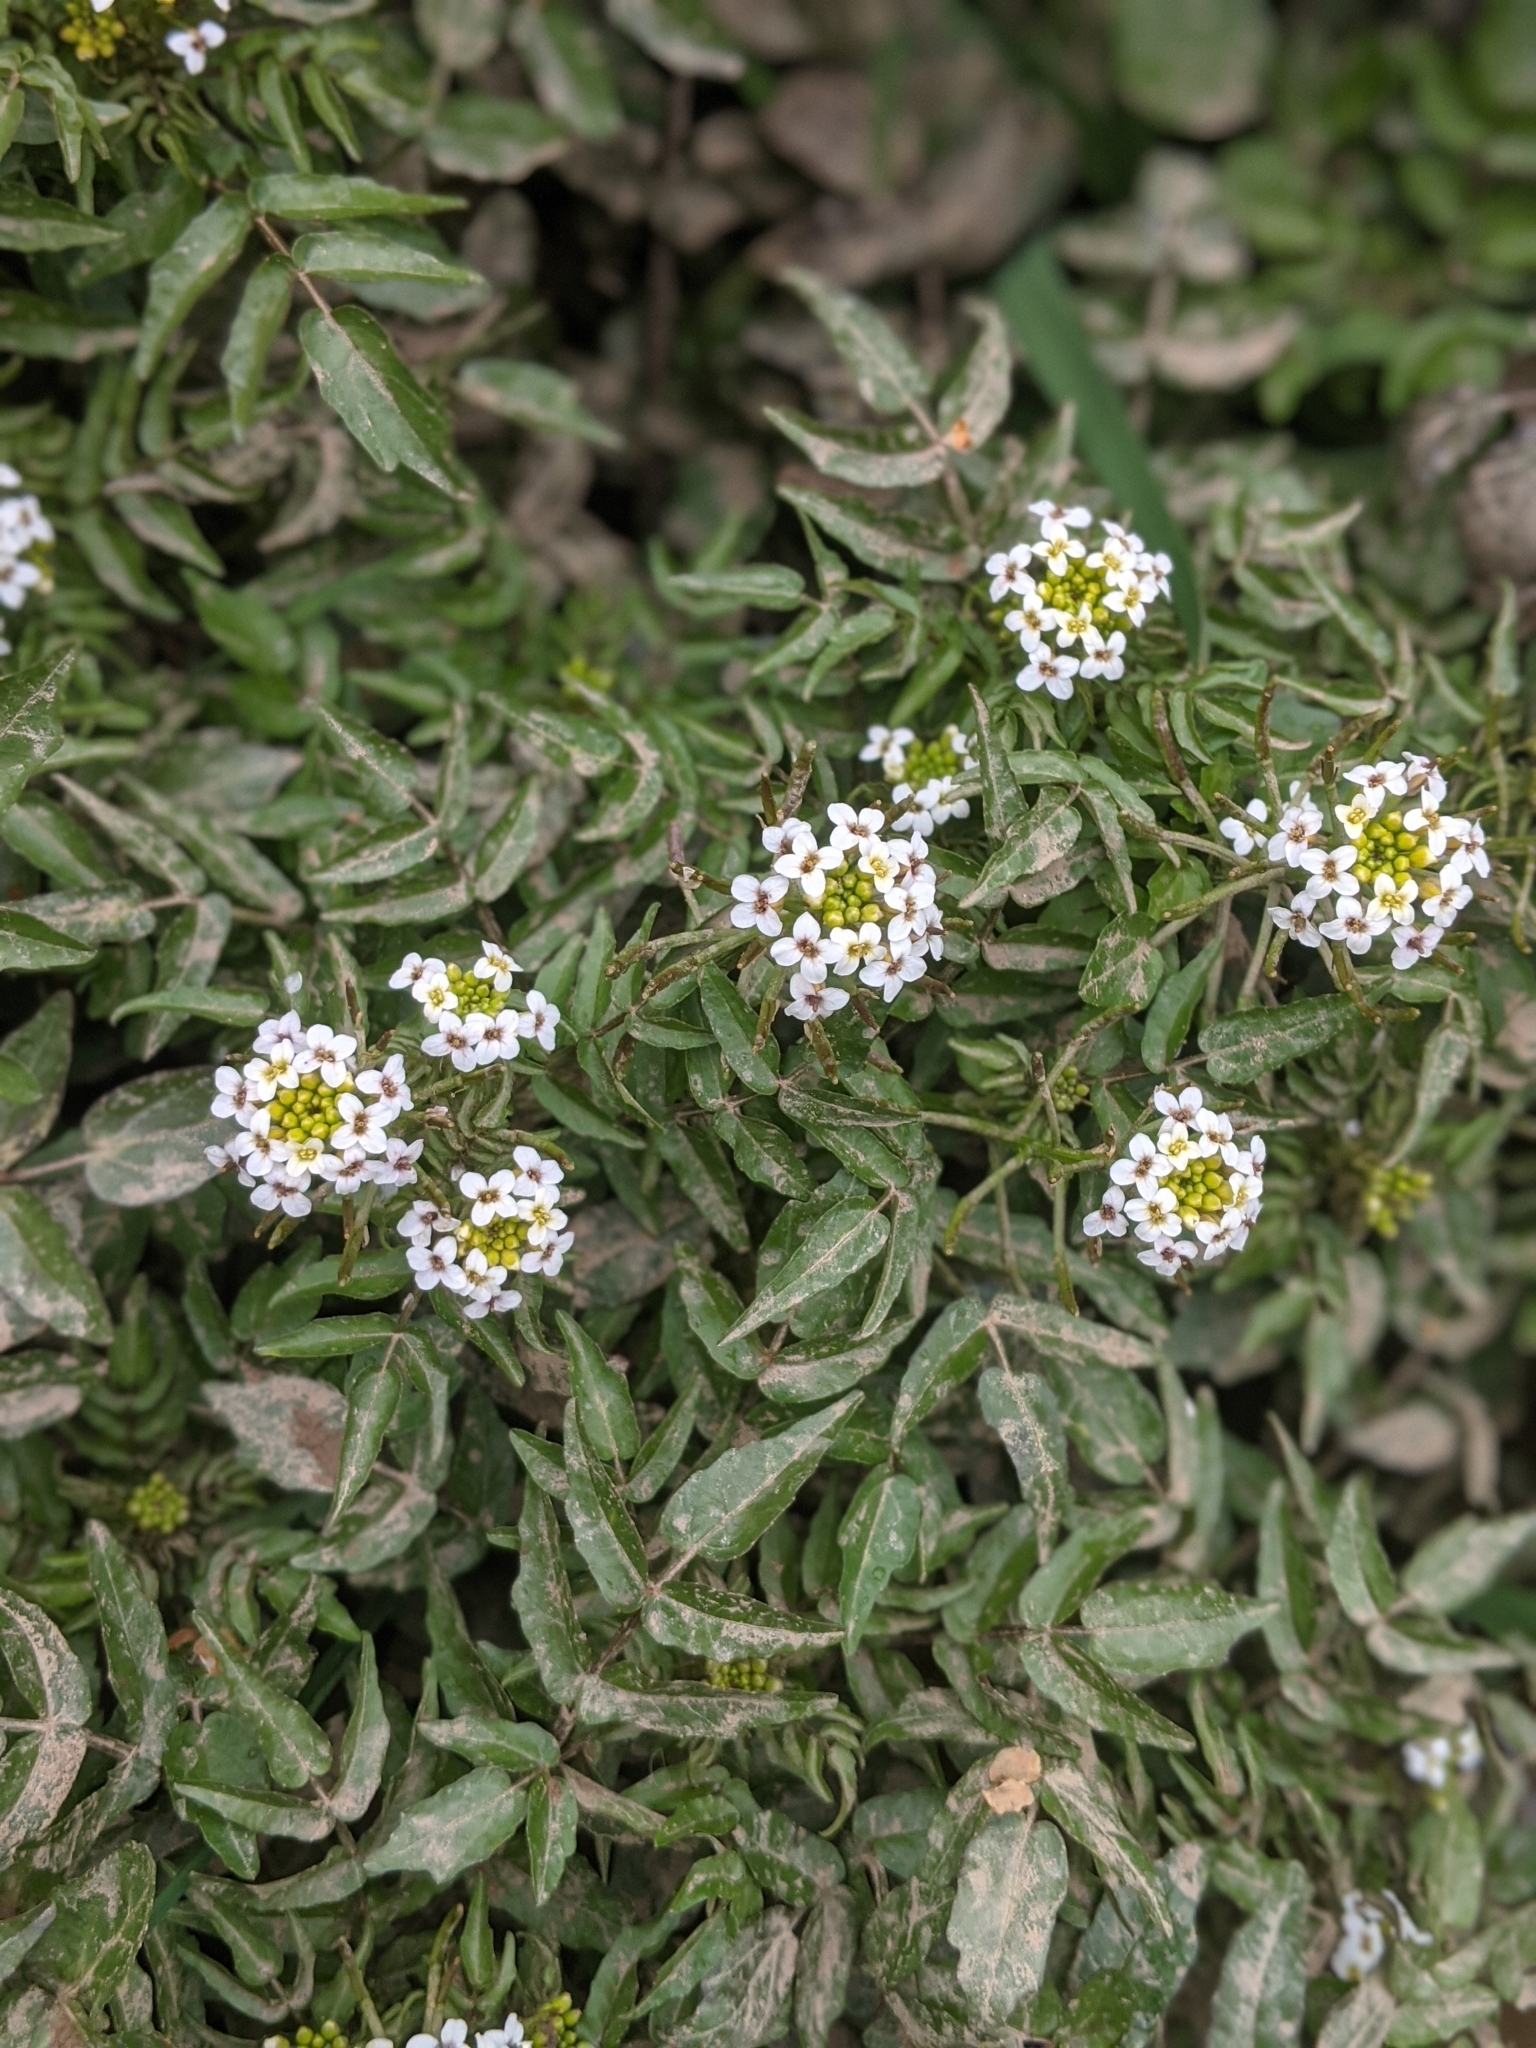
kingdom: Plantae
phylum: Tracheophyta
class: Magnoliopsida
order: Brassicales
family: Brassicaceae
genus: Nasturtium
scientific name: Nasturtium officinale
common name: Watercress
